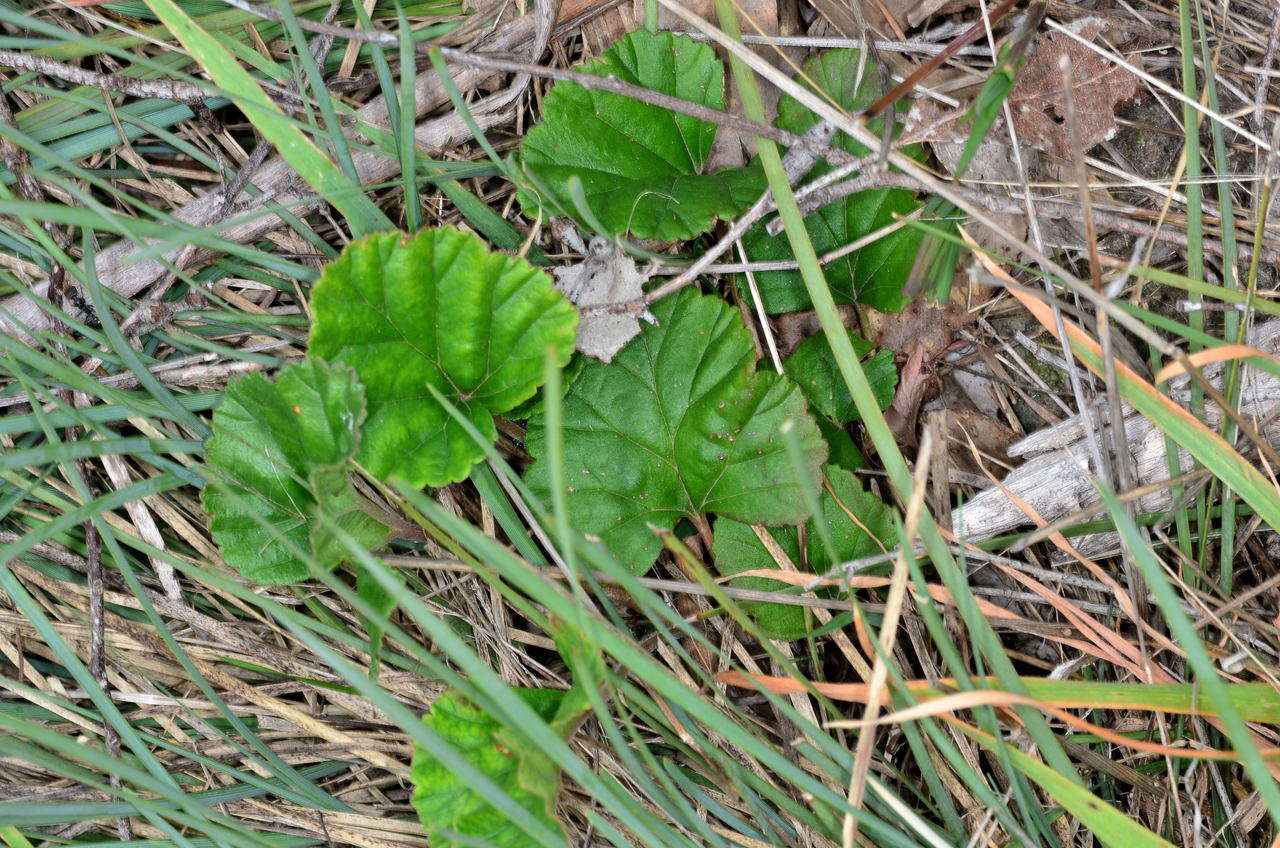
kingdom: Plantae
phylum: Tracheophyta
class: Magnoliopsida
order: Geraniales
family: Geraniaceae
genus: Pelargonium
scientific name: Pelargonium rodneyanum
